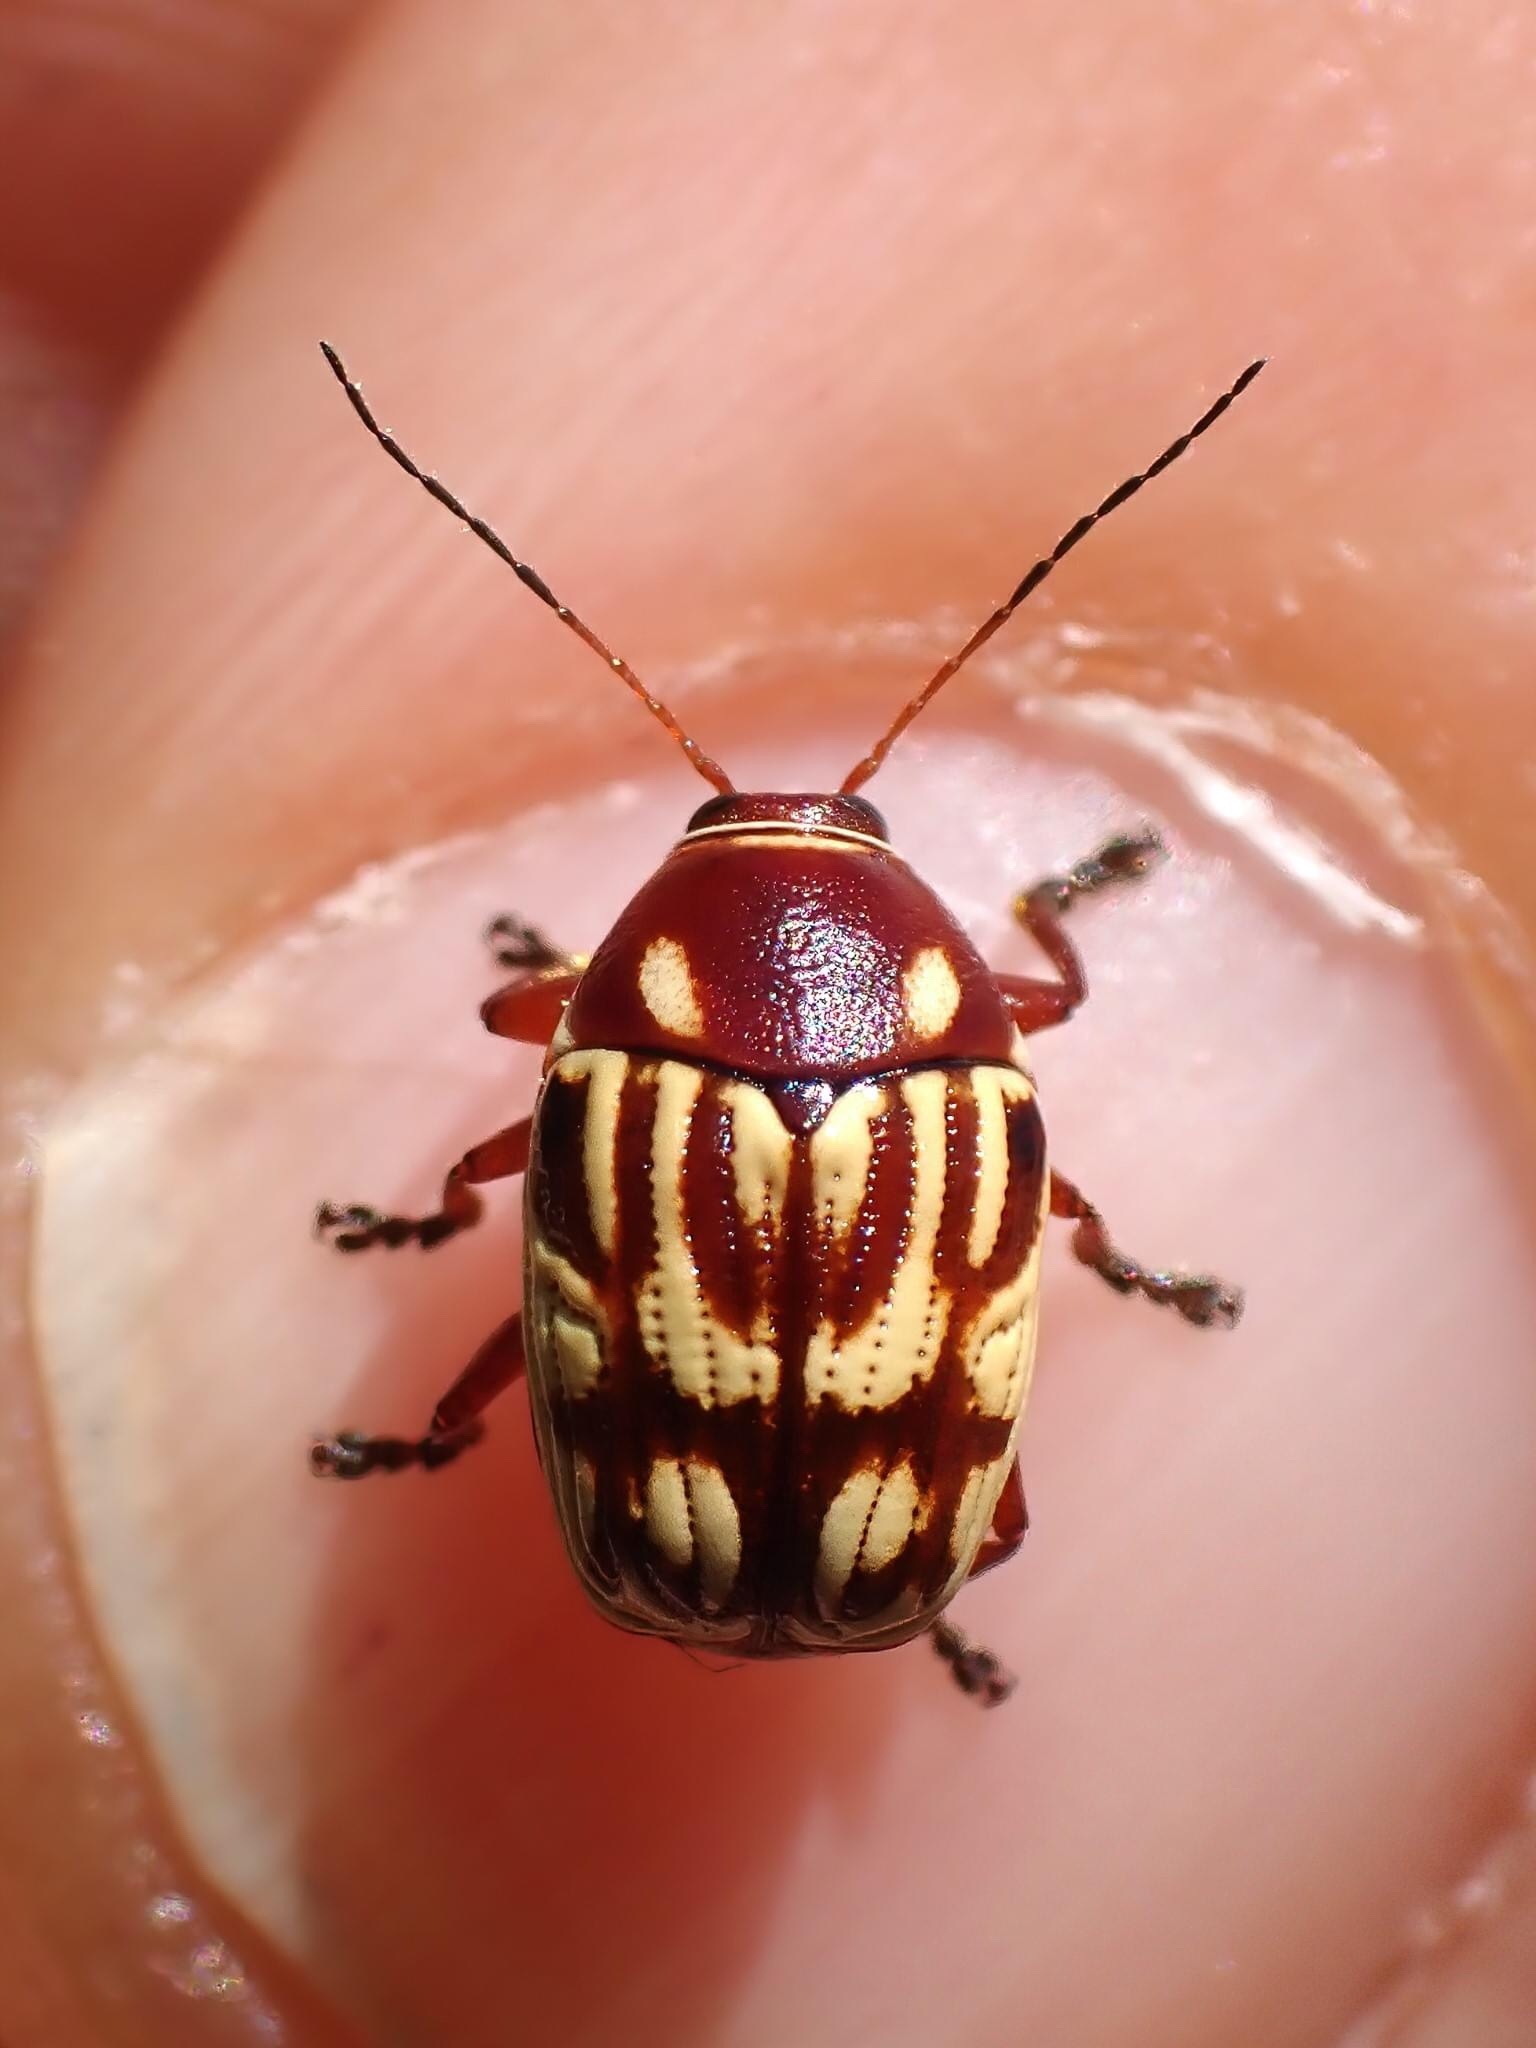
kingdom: Animalia
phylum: Arthropoda
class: Insecta
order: Coleoptera
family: Chrysomelidae
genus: Bassareus
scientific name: Bassareus brunnipes
